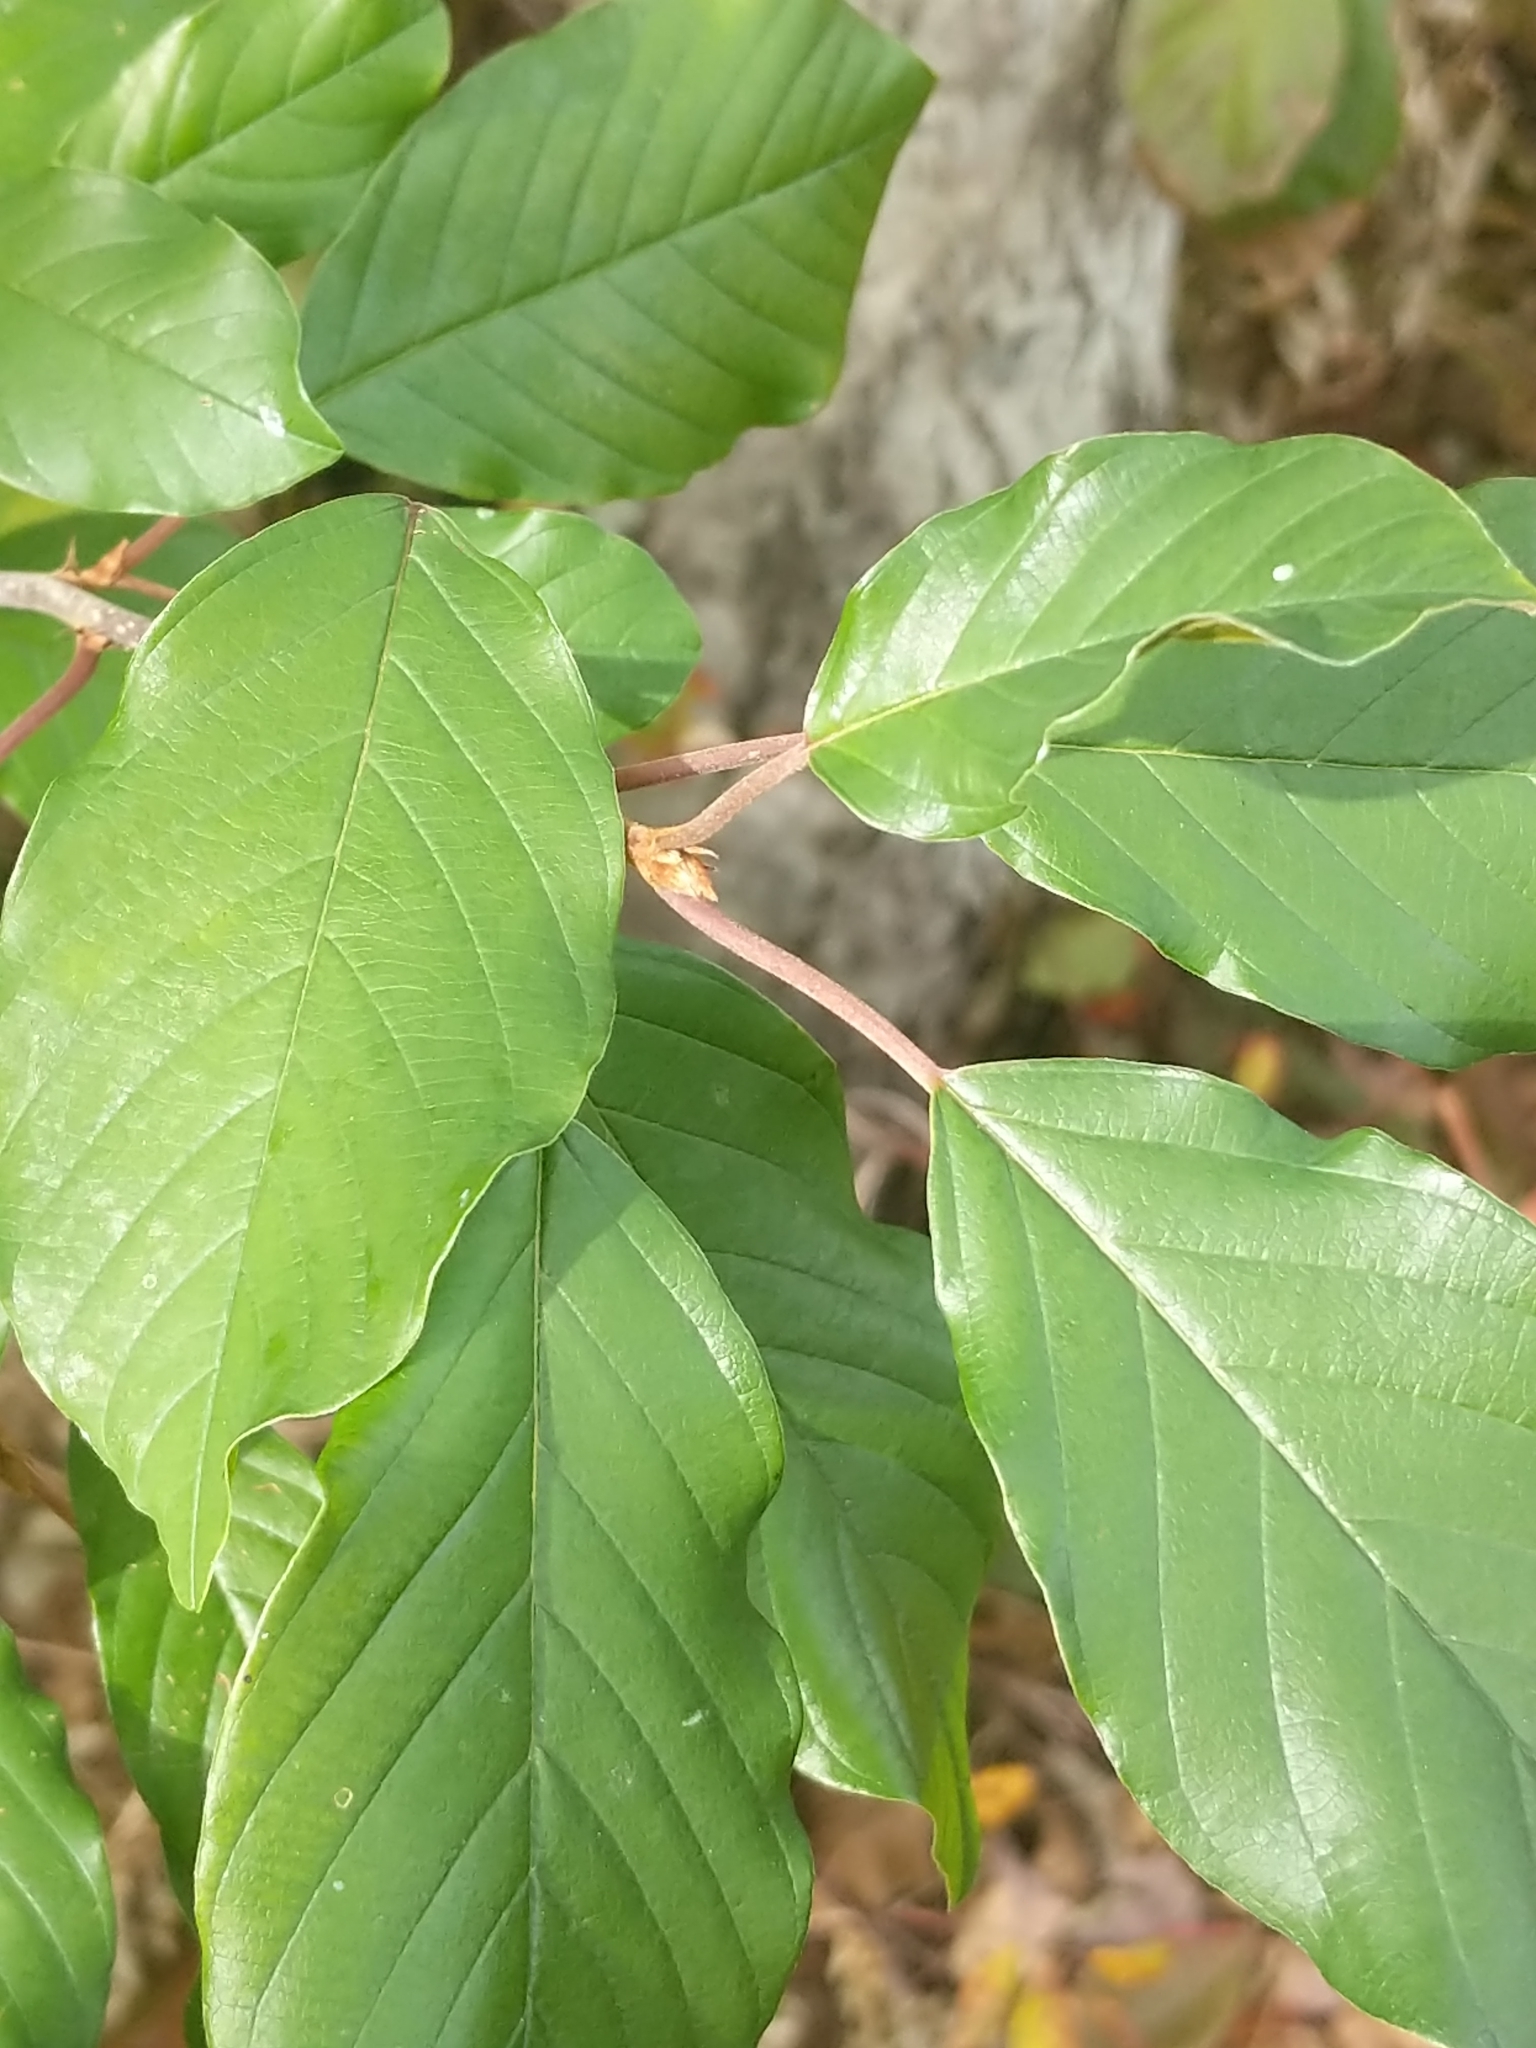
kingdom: Plantae
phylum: Tracheophyta
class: Magnoliopsida
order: Rosales
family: Rhamnaceae
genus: Frangula
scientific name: Frangula alnus
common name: Alder buckthorn
